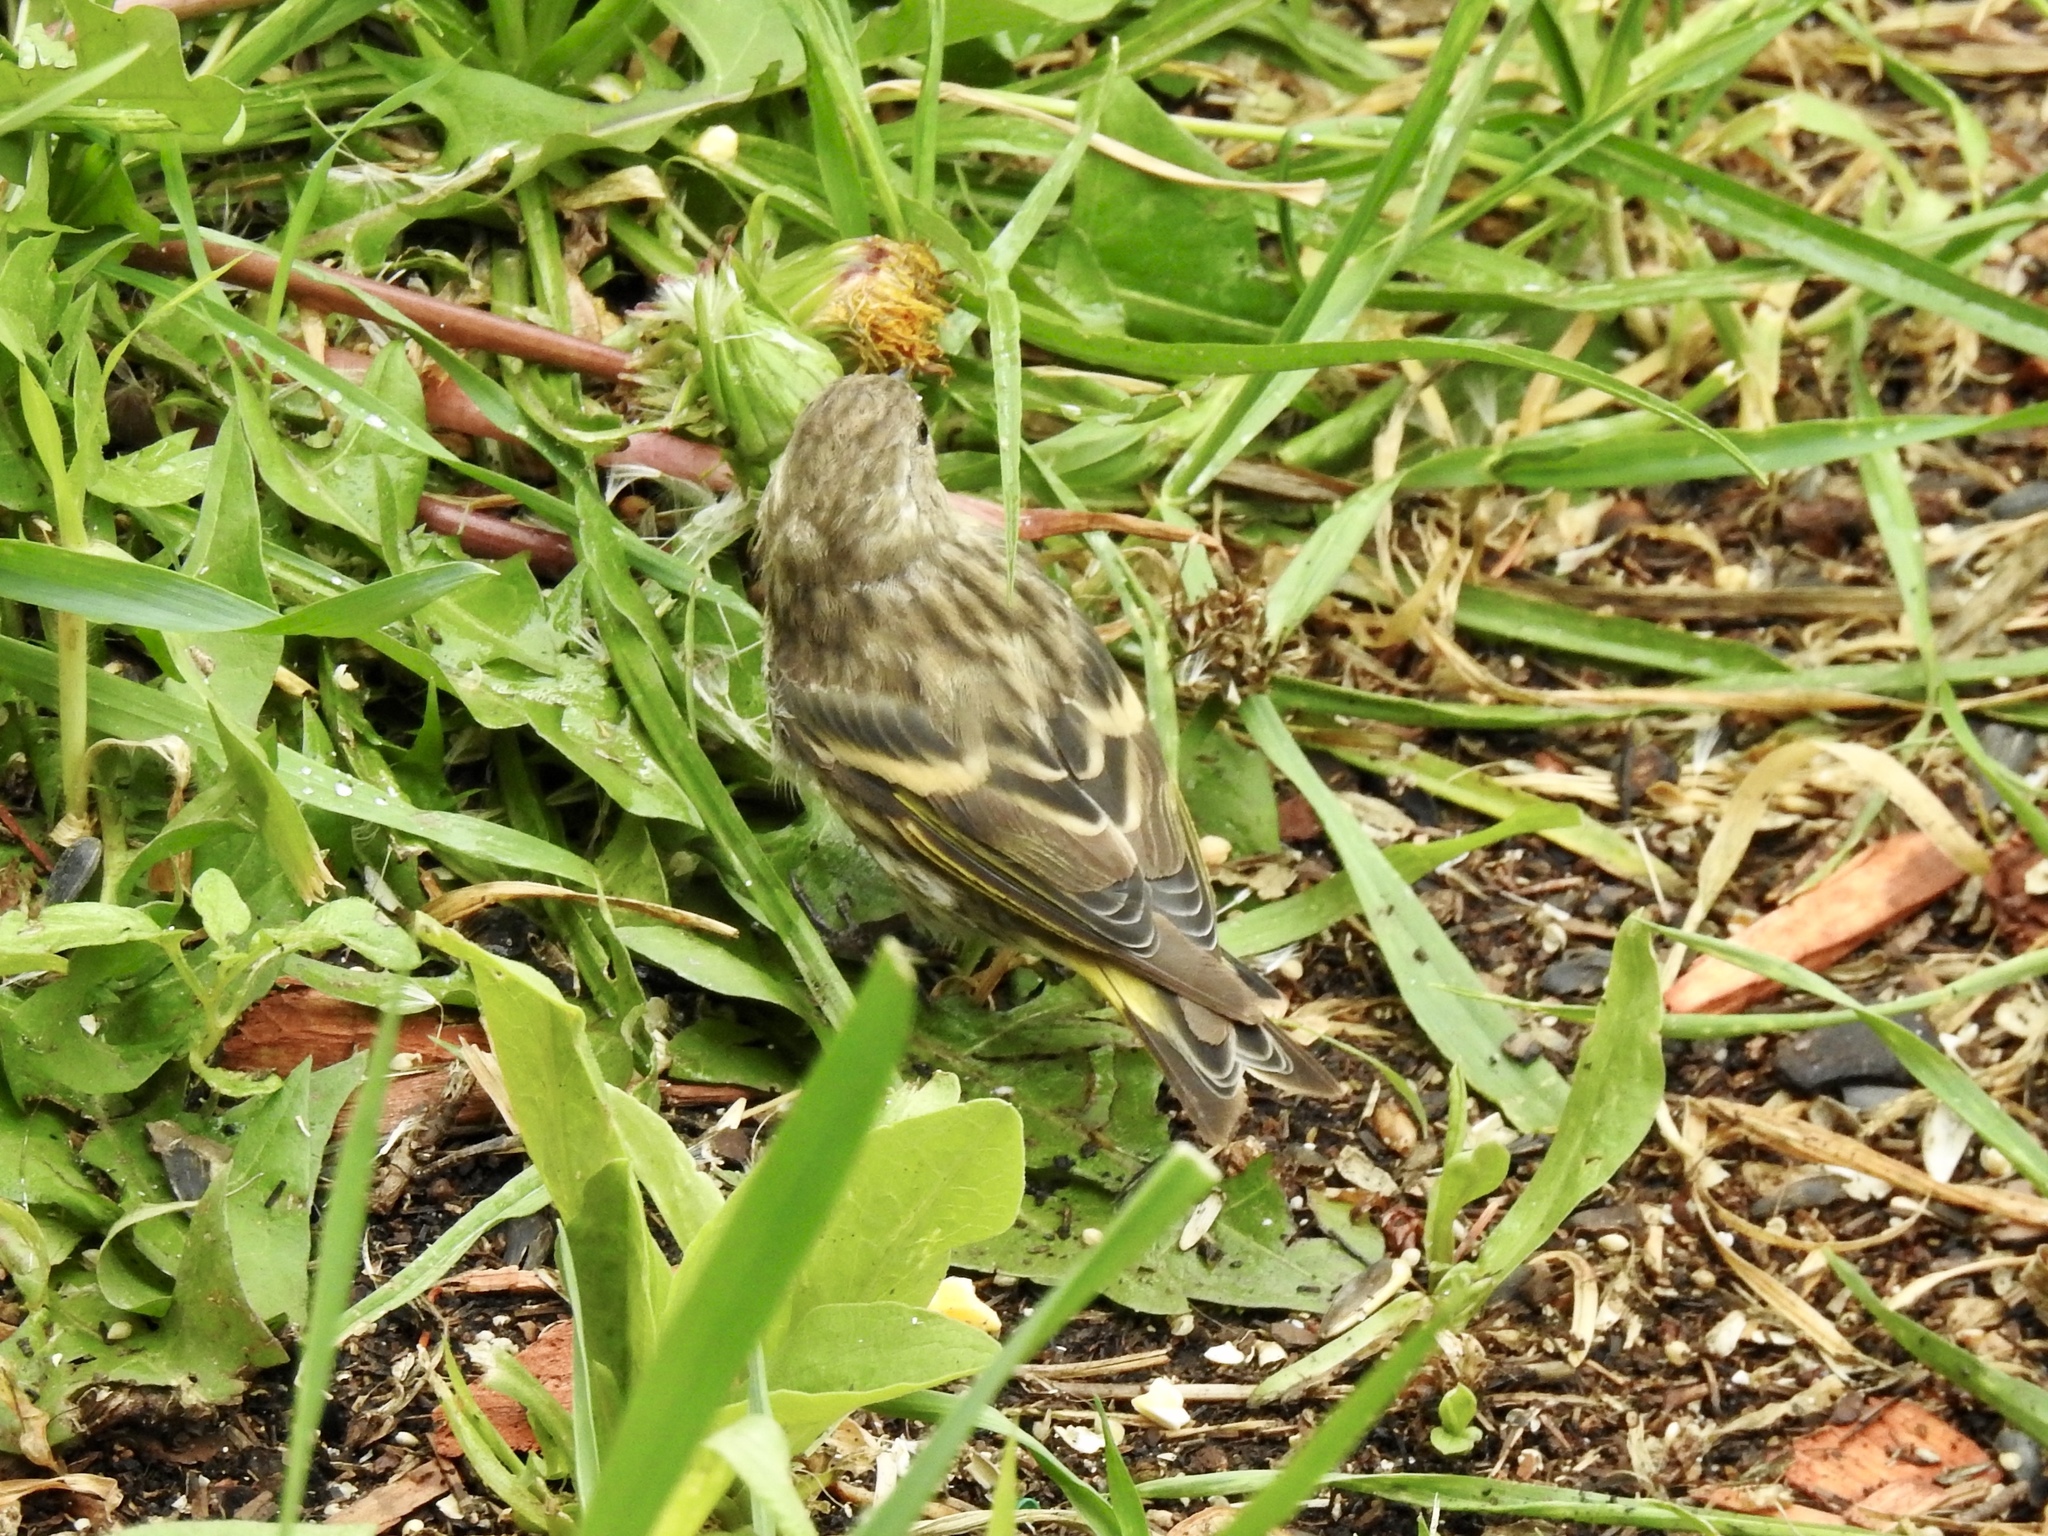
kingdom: Animalia
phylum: Chordata
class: Aves
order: Passeriformes
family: Fringillidae
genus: Spinus
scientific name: Spinus pinus
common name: Pine siskin
